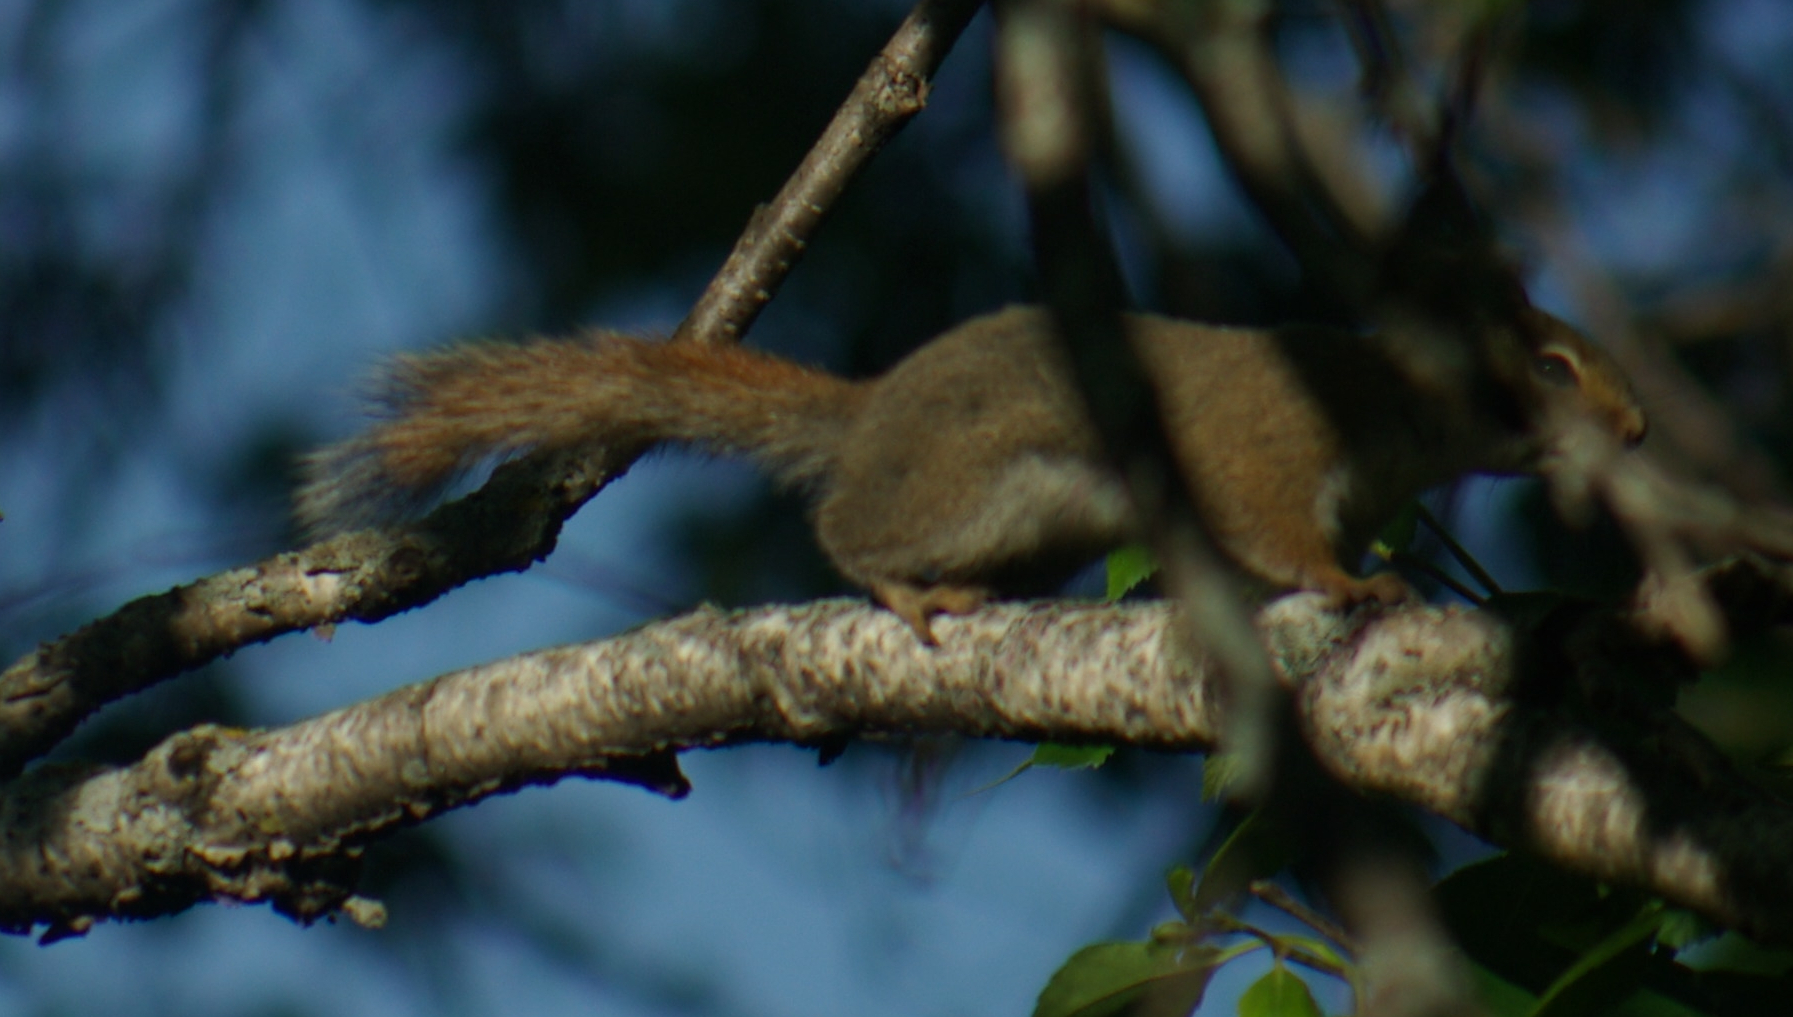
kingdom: Animalia
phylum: Chordata
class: Mammalia
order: Rodentia
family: Sciuridae
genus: Tamiasciurus
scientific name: Tamiasciurus hudsonicus
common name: Red squirrel
